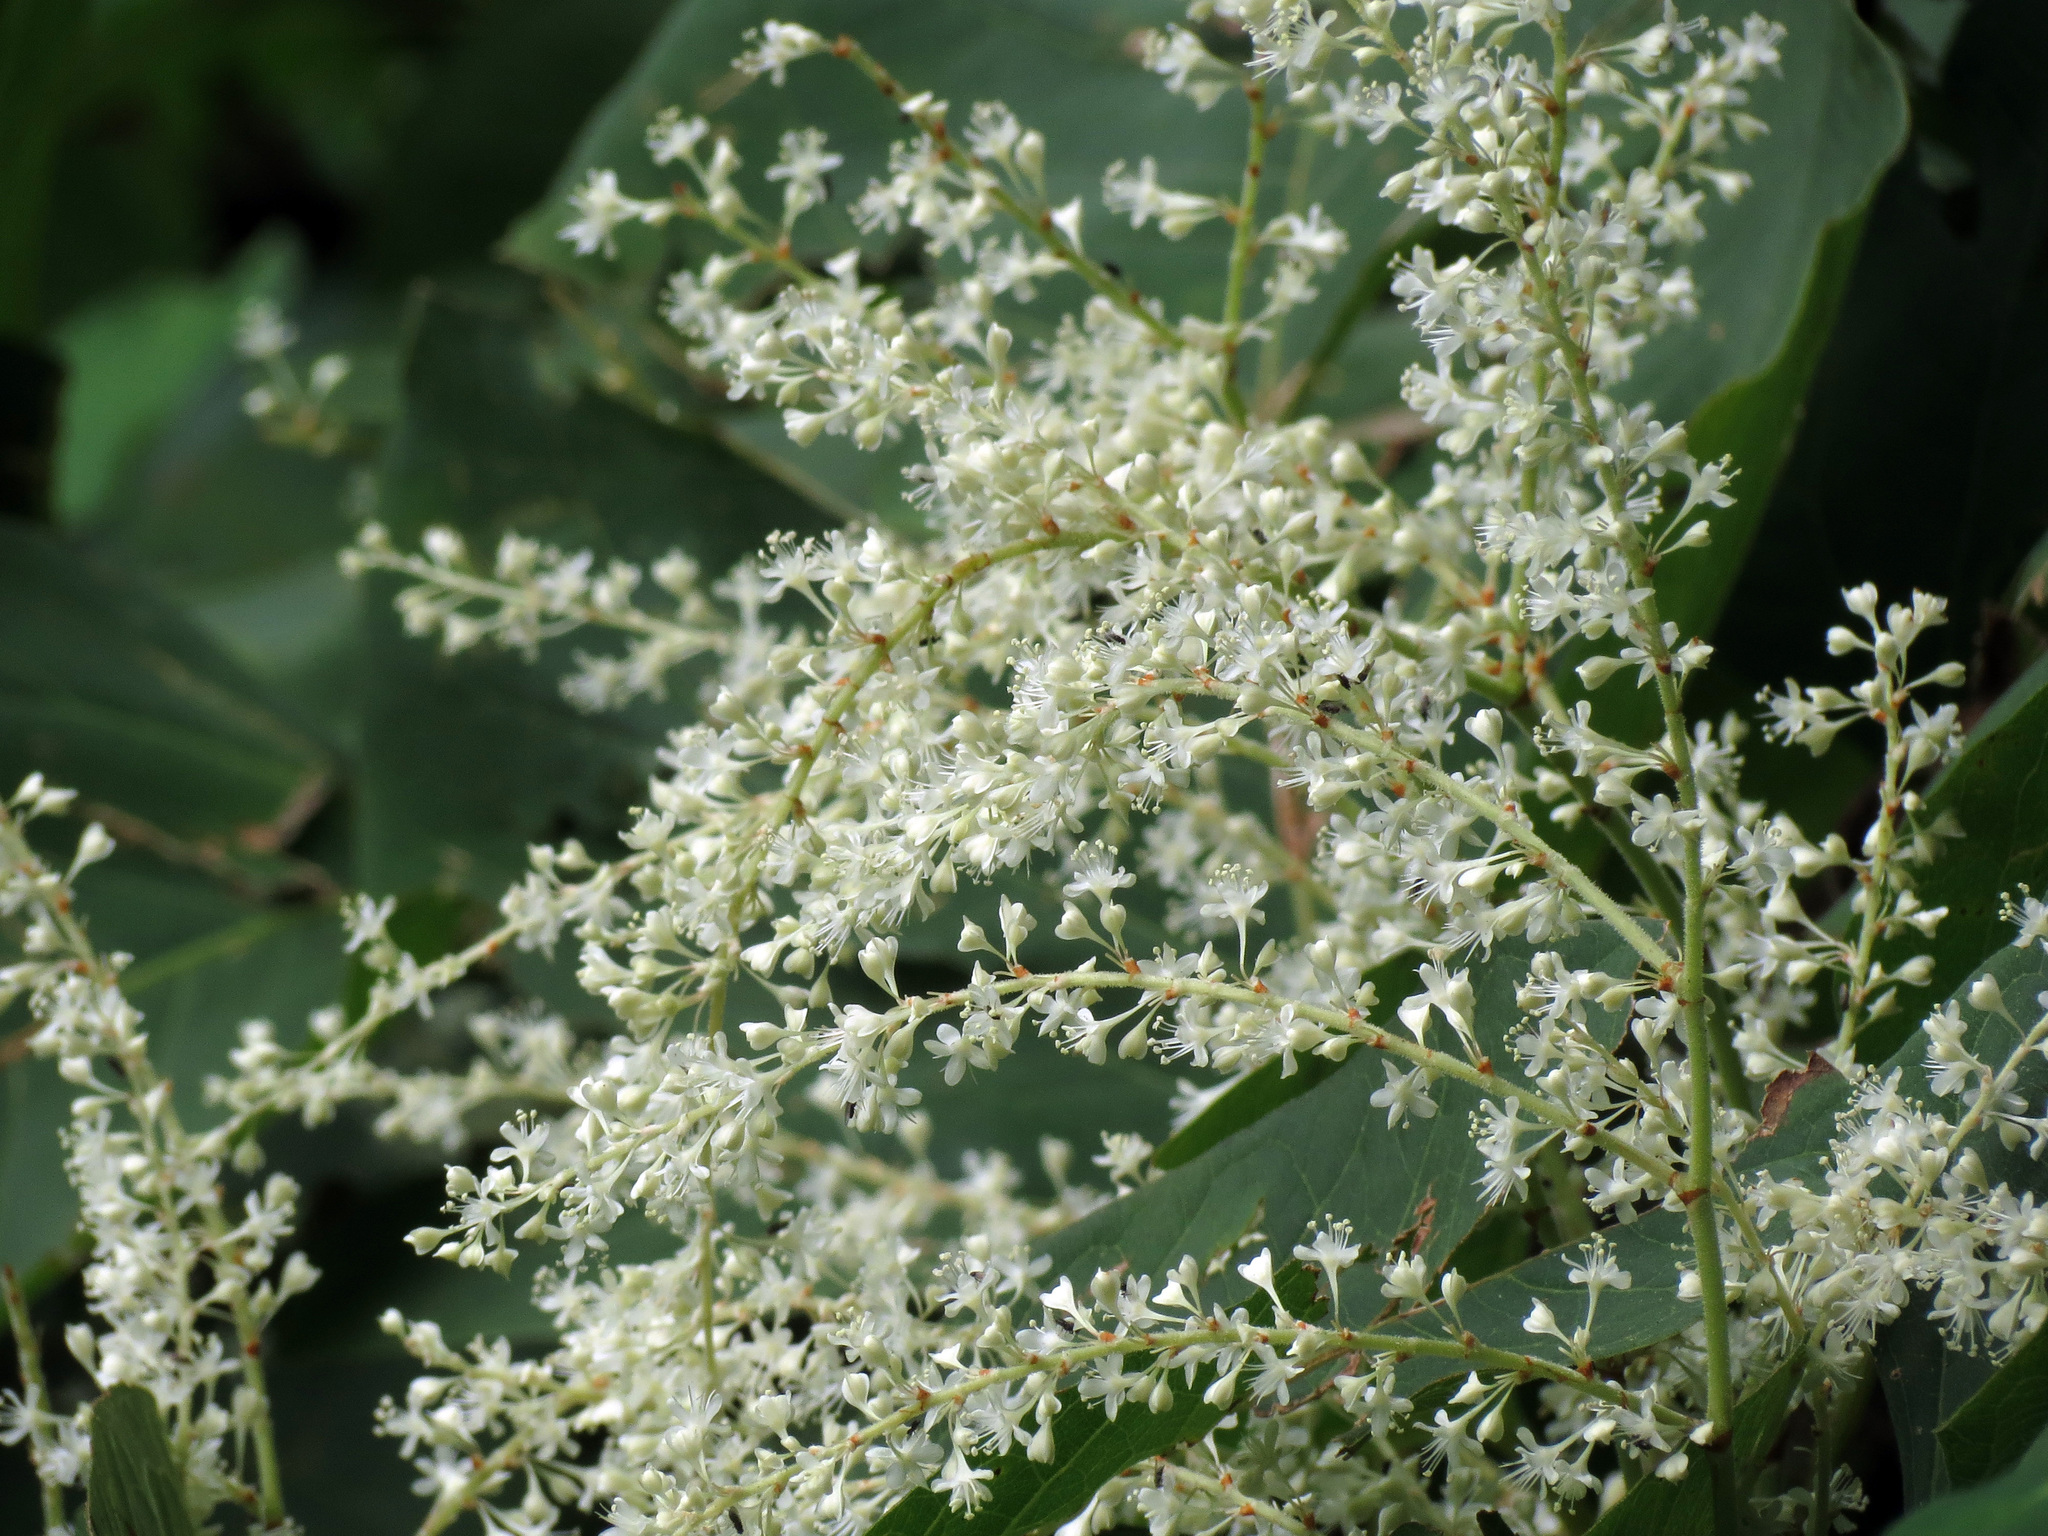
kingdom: Plantae
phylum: Tracheophyta
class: Magnoliopsida
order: Caryophyllales
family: Polygonaceae
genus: Reynoutria
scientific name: Reynoutria japonica
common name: Japanese knotweed
